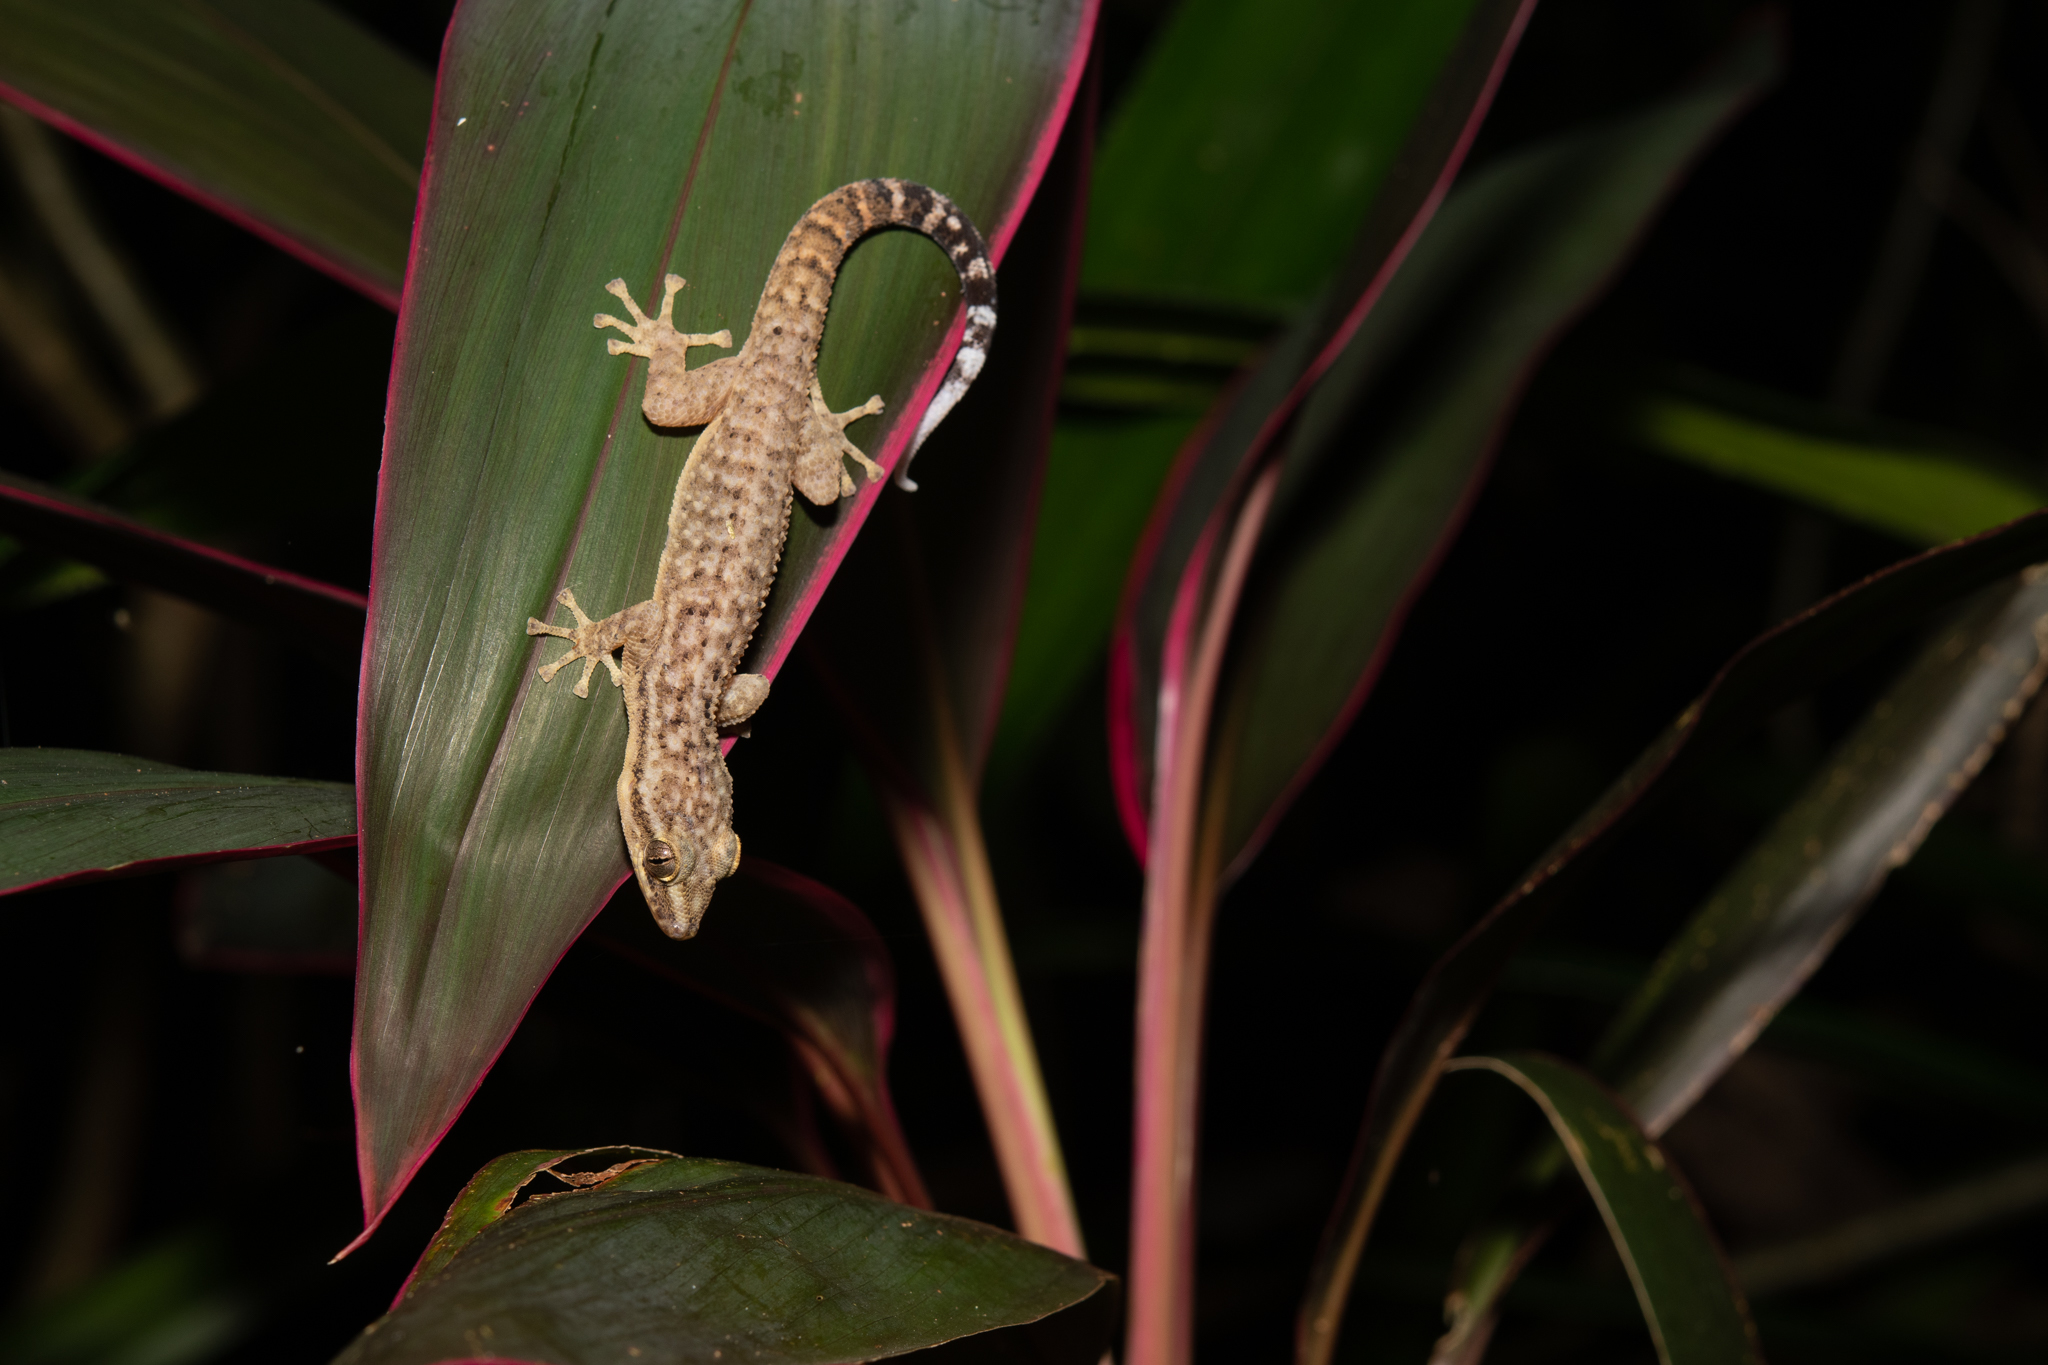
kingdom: Animalia
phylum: Chordata
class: Squamata
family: Phyllodactylidae
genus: Phyllodactylus
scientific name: Phyllodactylus palmeus
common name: Honduras leaf-toed gecko
